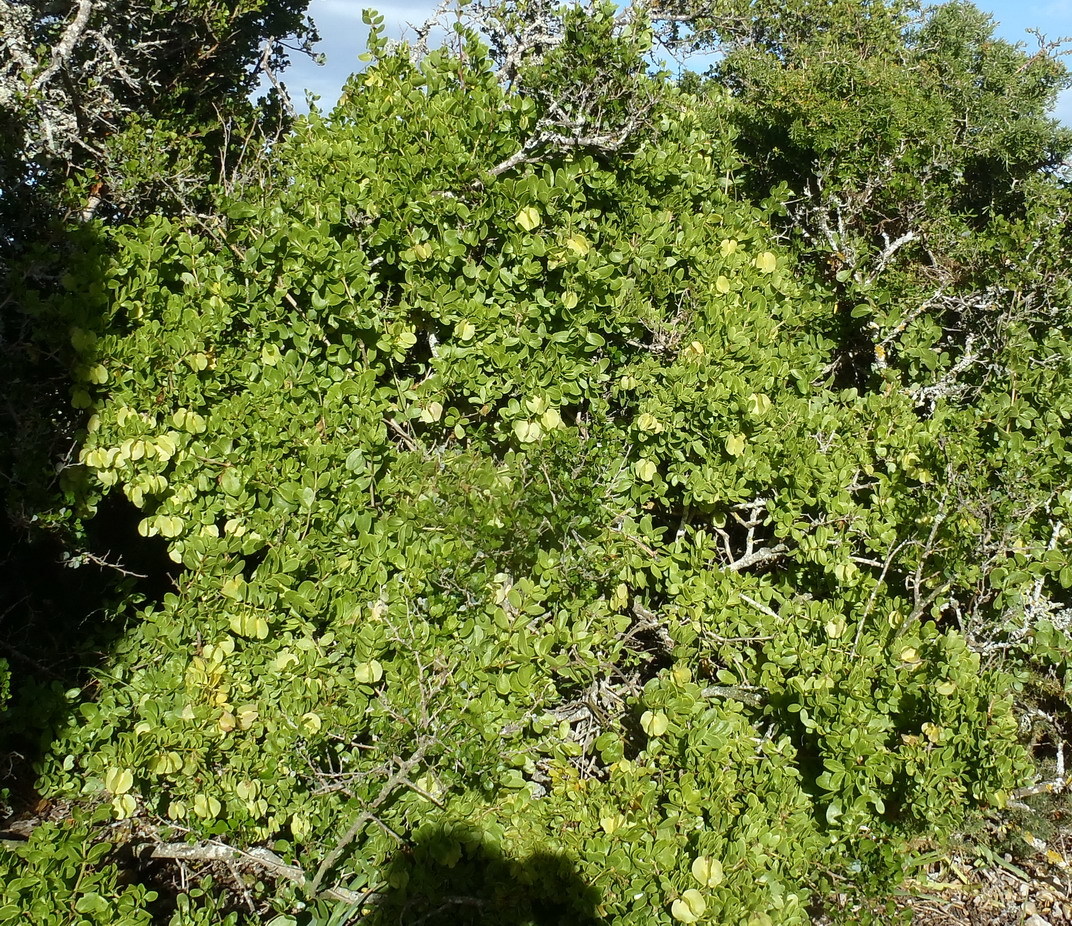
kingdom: Plantae
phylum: Tracheophyta
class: Magnoliopsida
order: Zygophyllales
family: Zygophyllaceae
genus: Roepera
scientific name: Roepera morgsana
